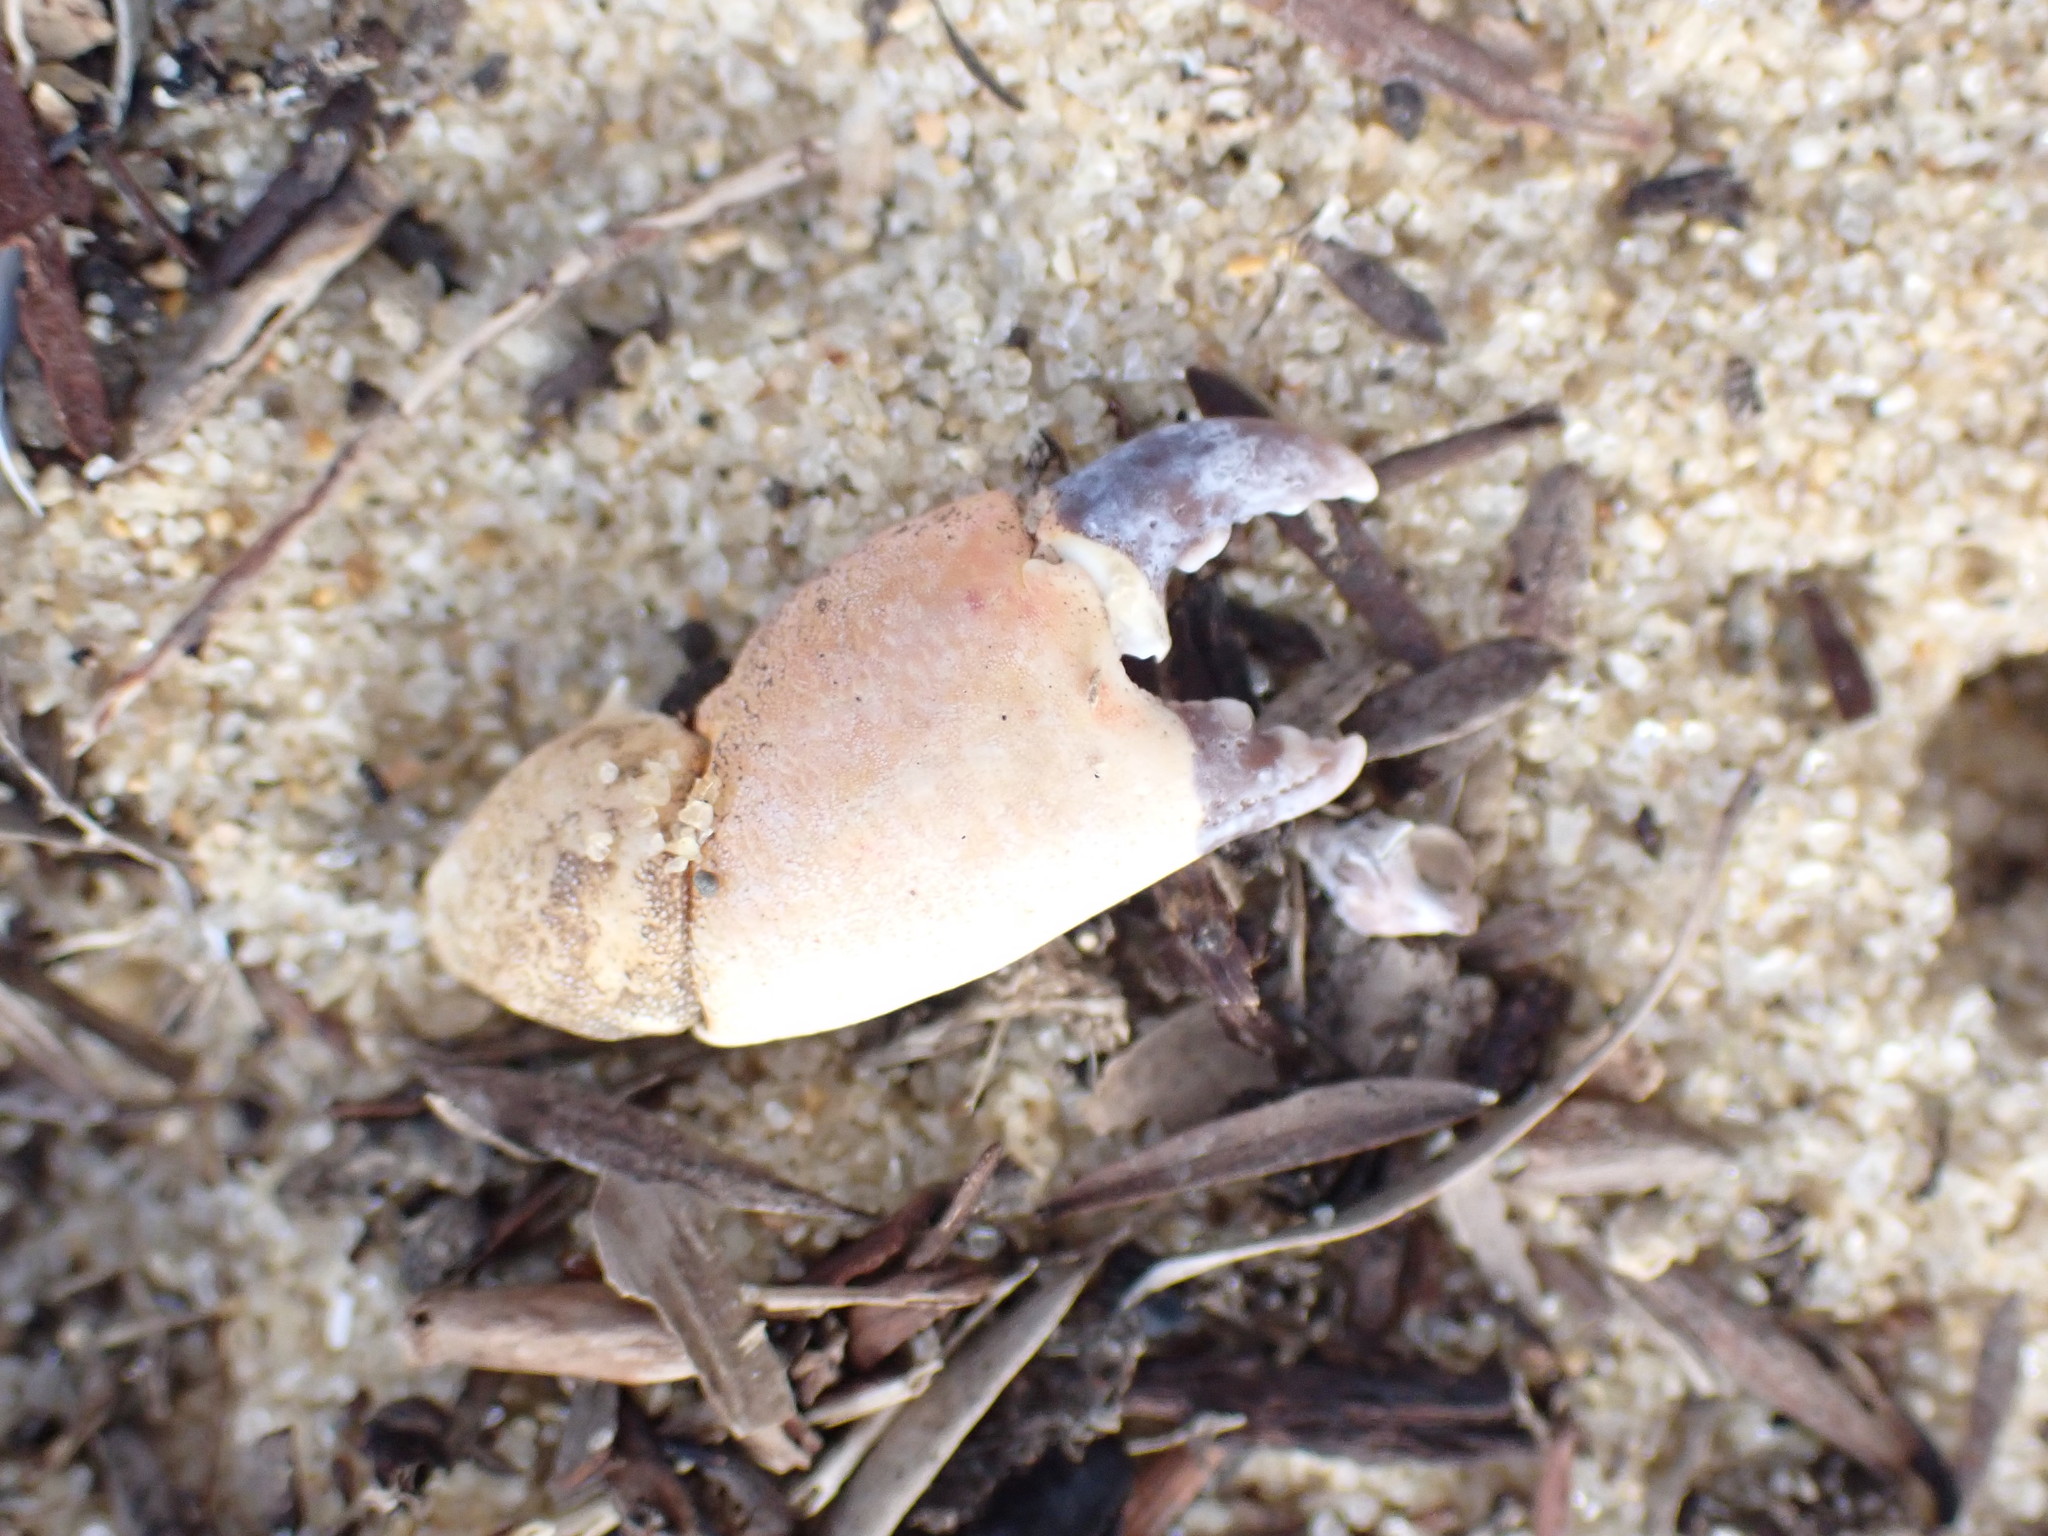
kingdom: Animalia
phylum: Arthropoda
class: Malacostraca
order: Decapoda
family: Oziidae
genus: Ozius
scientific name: Ozius deplanatus
